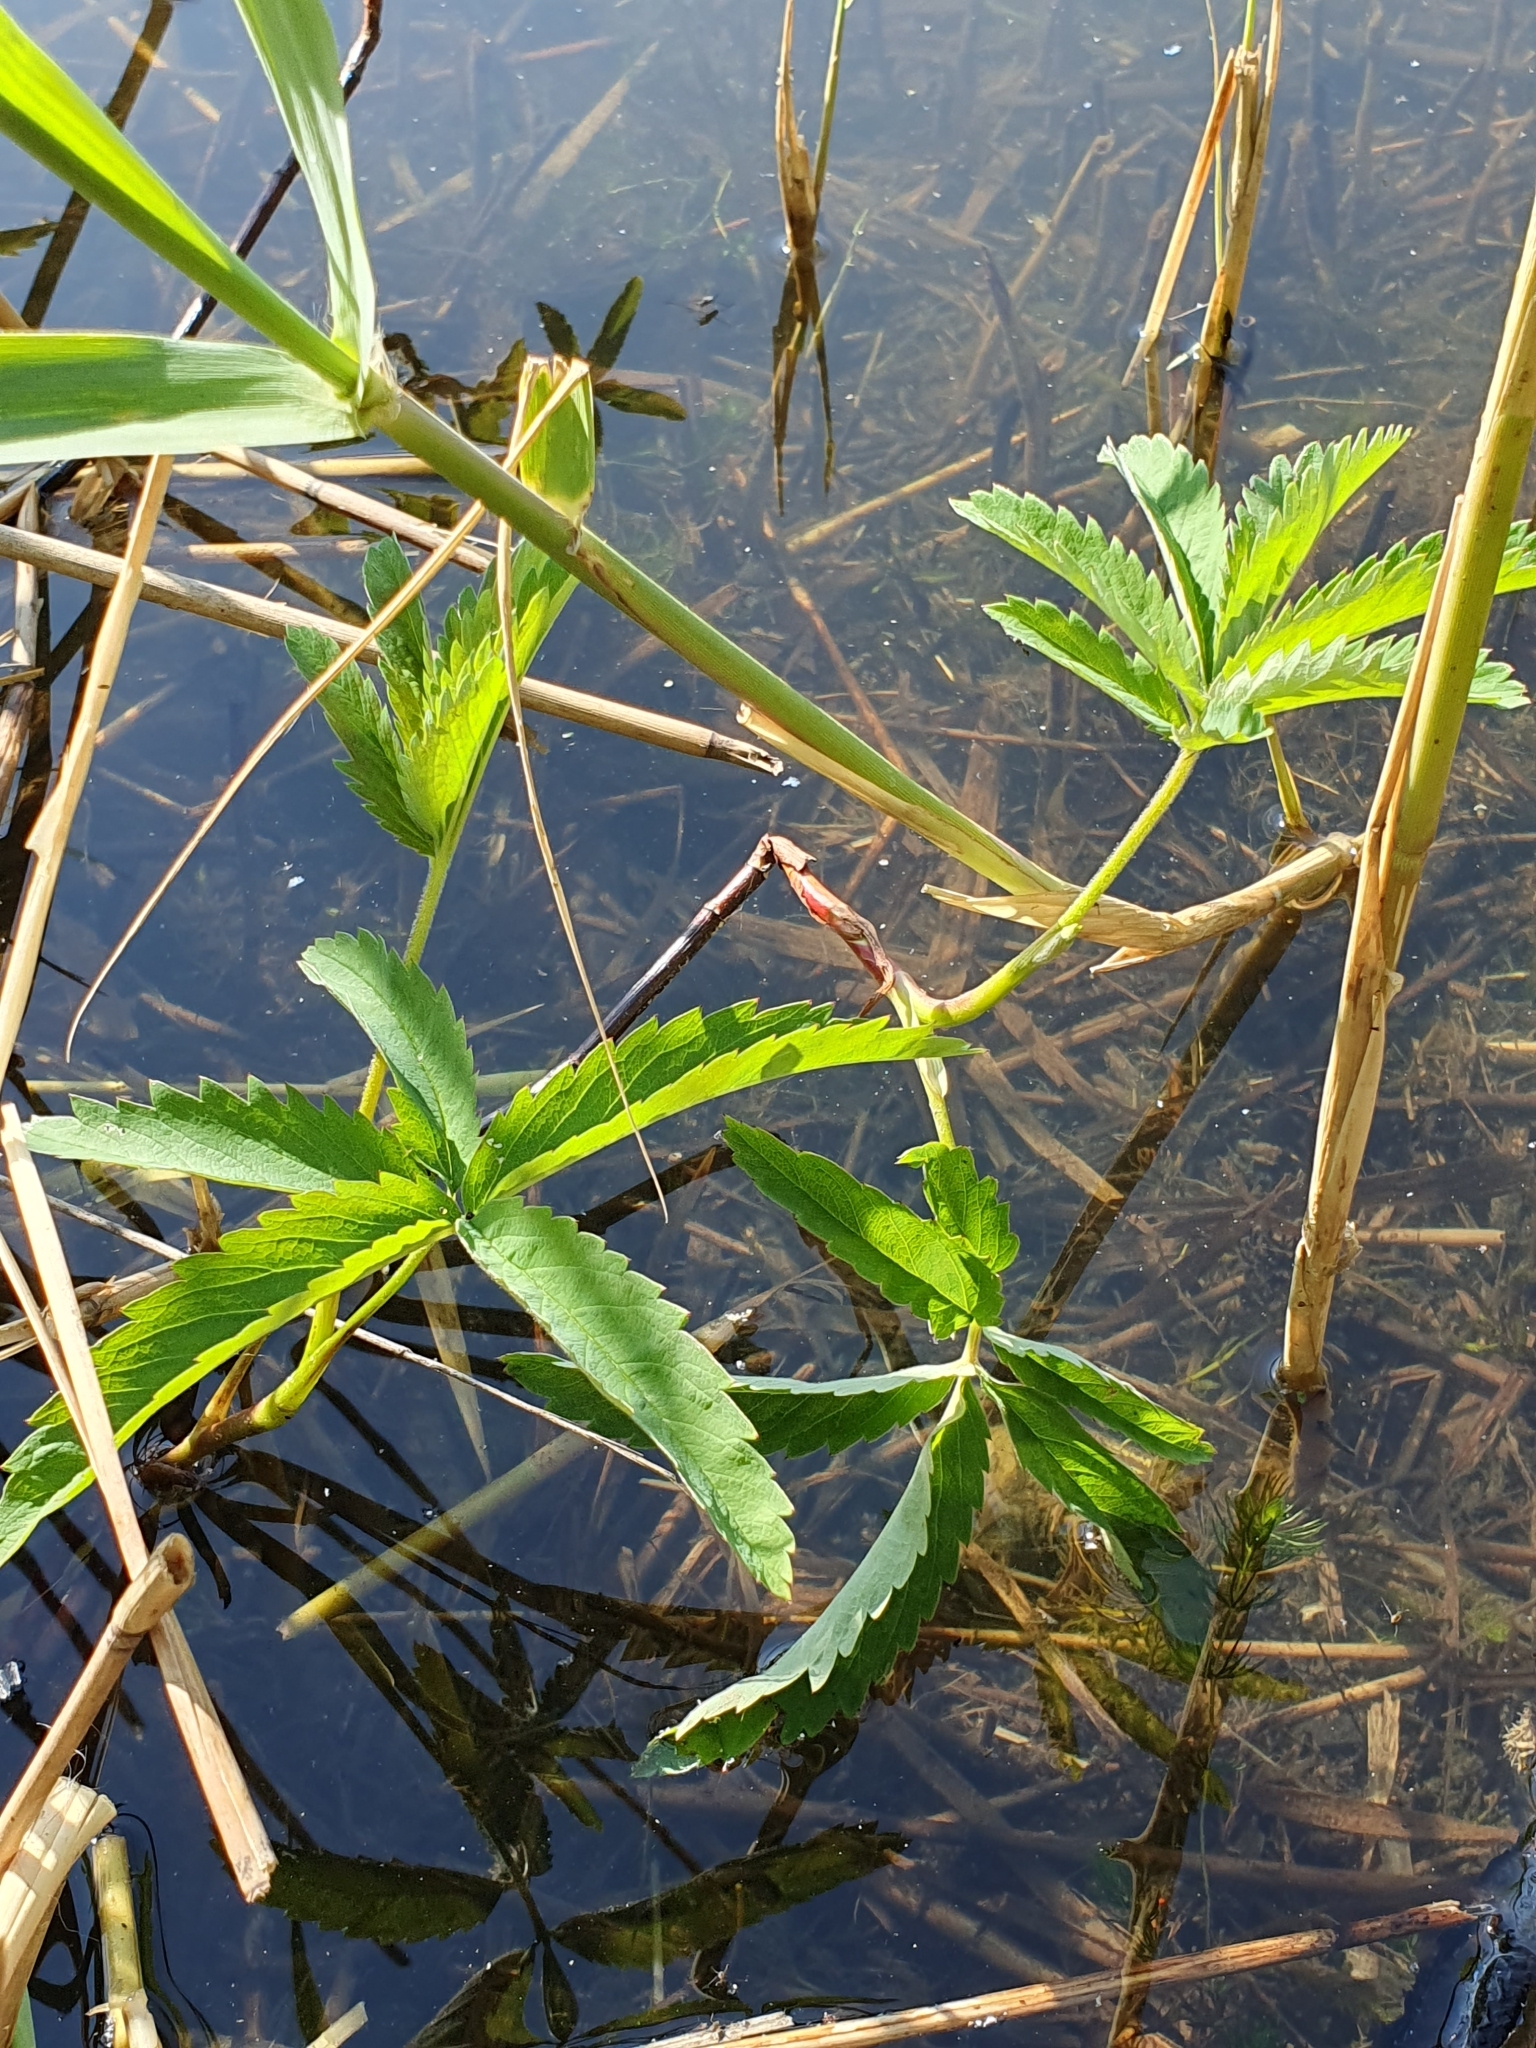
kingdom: Plantae
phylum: Tracheophyta
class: Magnoliopsida
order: Rosales
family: Rosaceae
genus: Comarum
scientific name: Comarum palustre
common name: Marsh cinquefoil
